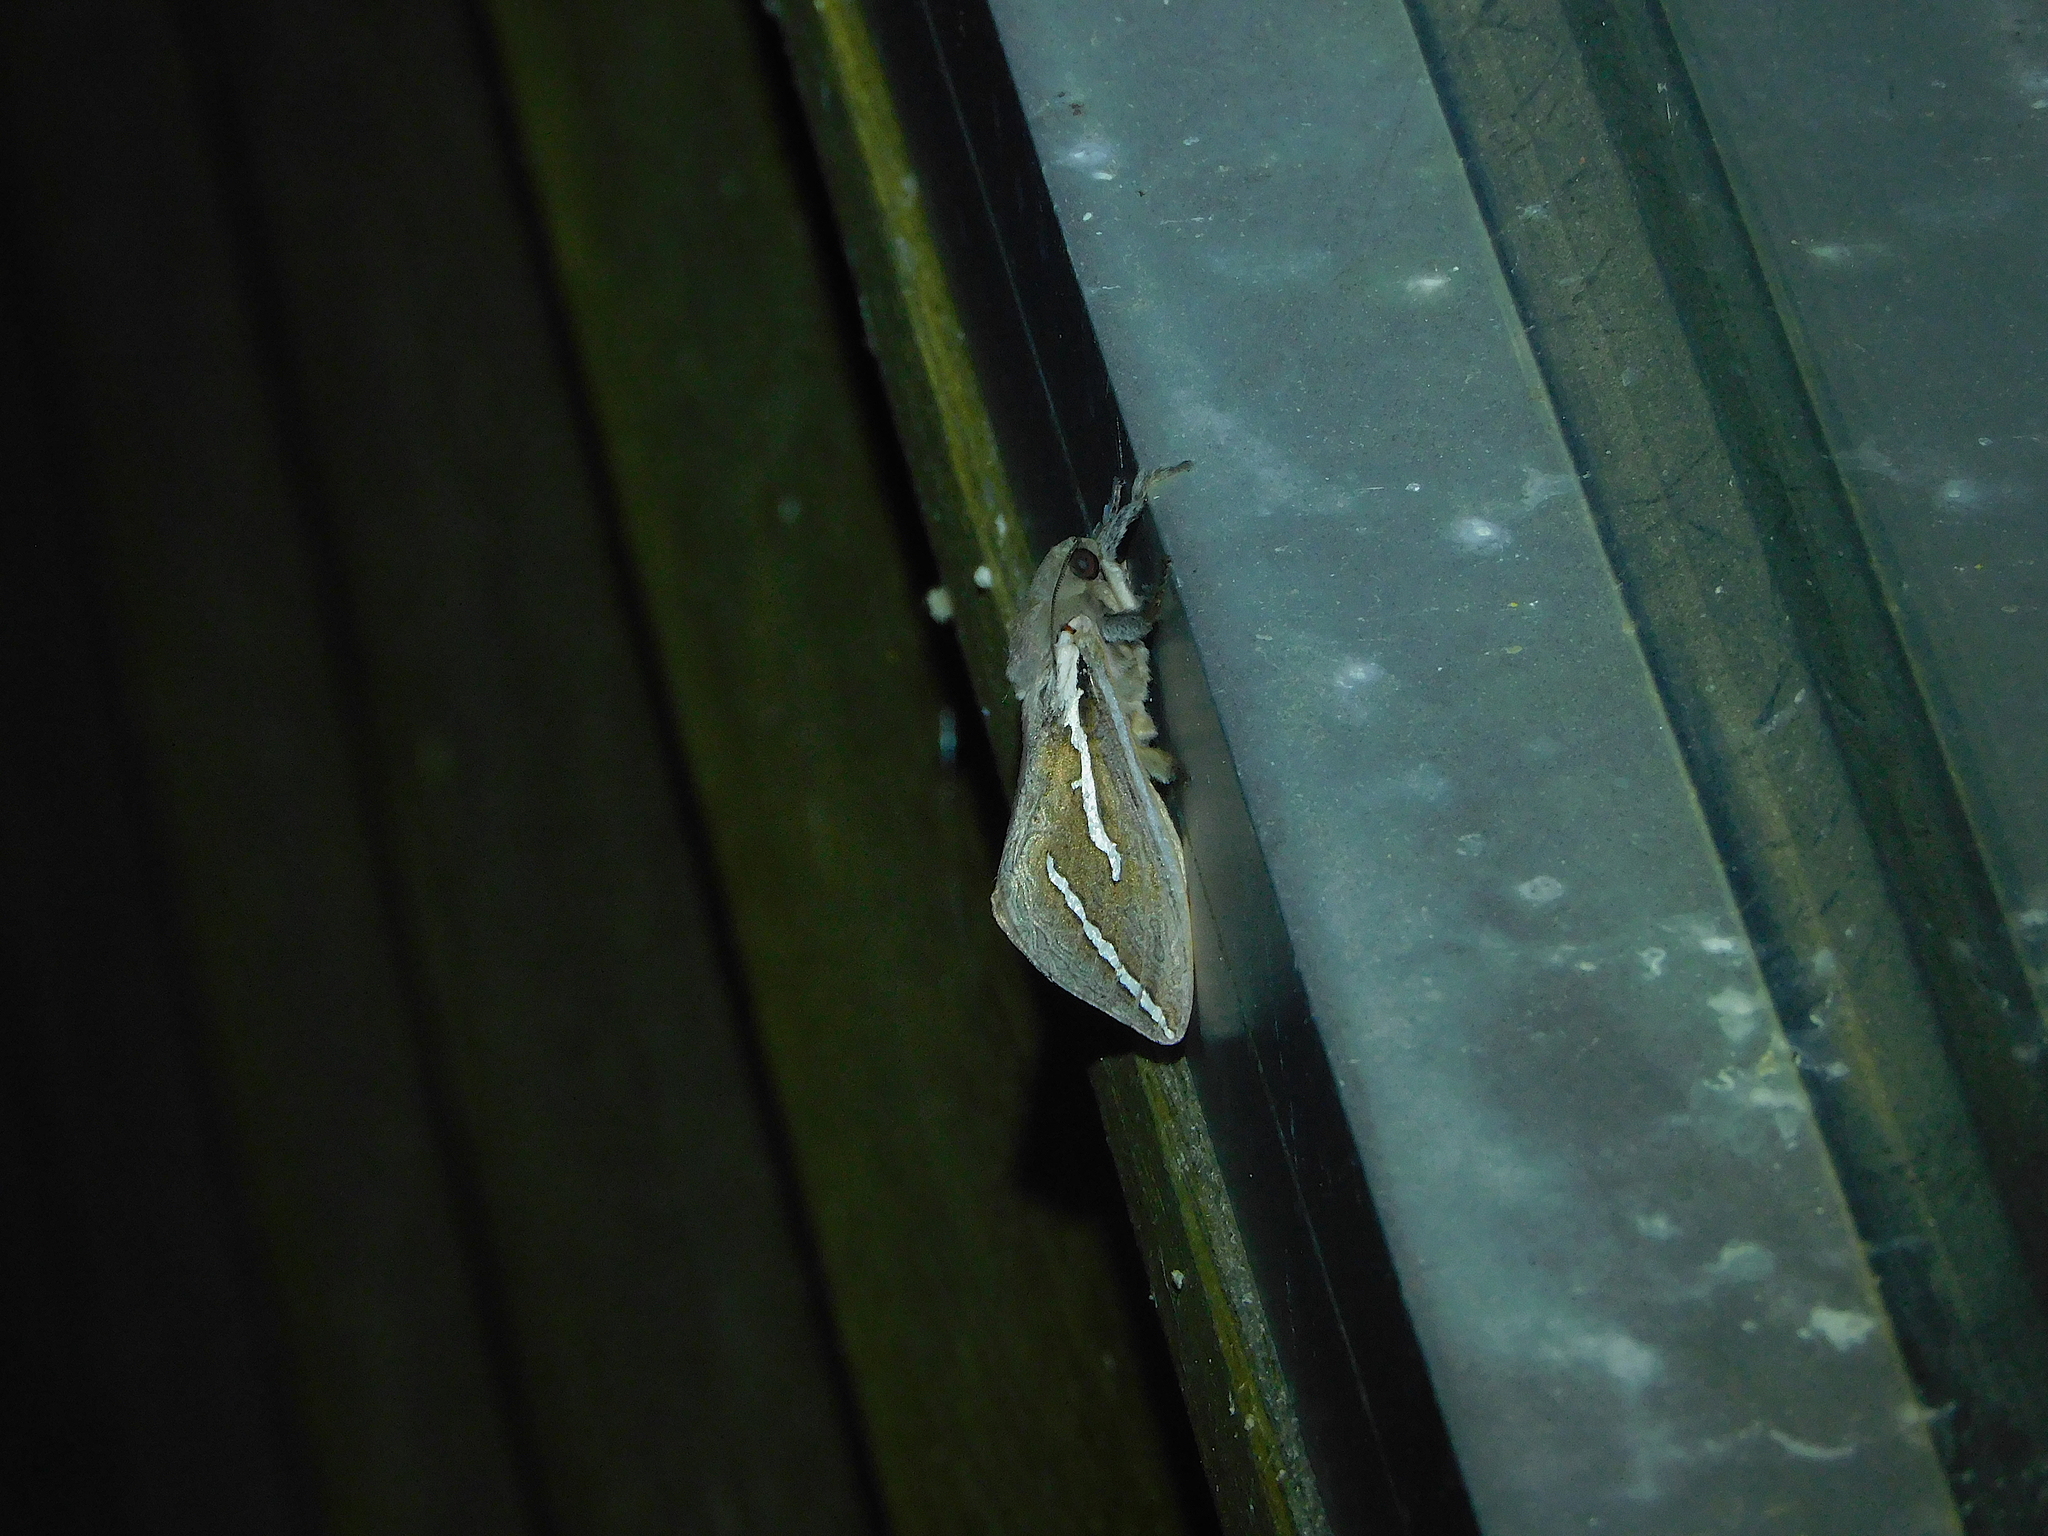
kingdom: Animalia
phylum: Arthropoda
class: Insecta
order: Lepidoptera
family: Hepialidae
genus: Abantiades
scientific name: Abantiades latipennis
